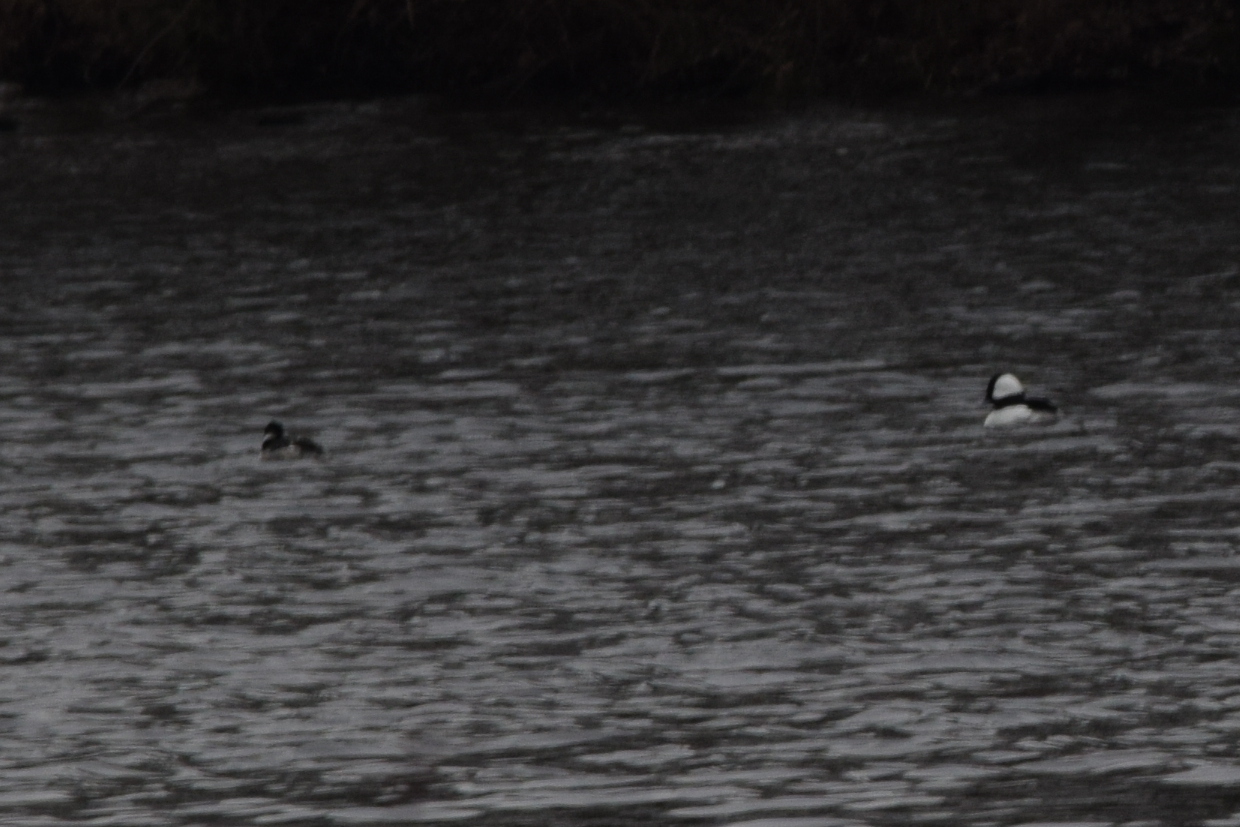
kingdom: Animalia
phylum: Chordata
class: Aves
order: Anseriformes
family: Anatidae
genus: Bucephala
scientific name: Bucephala albeola
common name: Bufflehead
